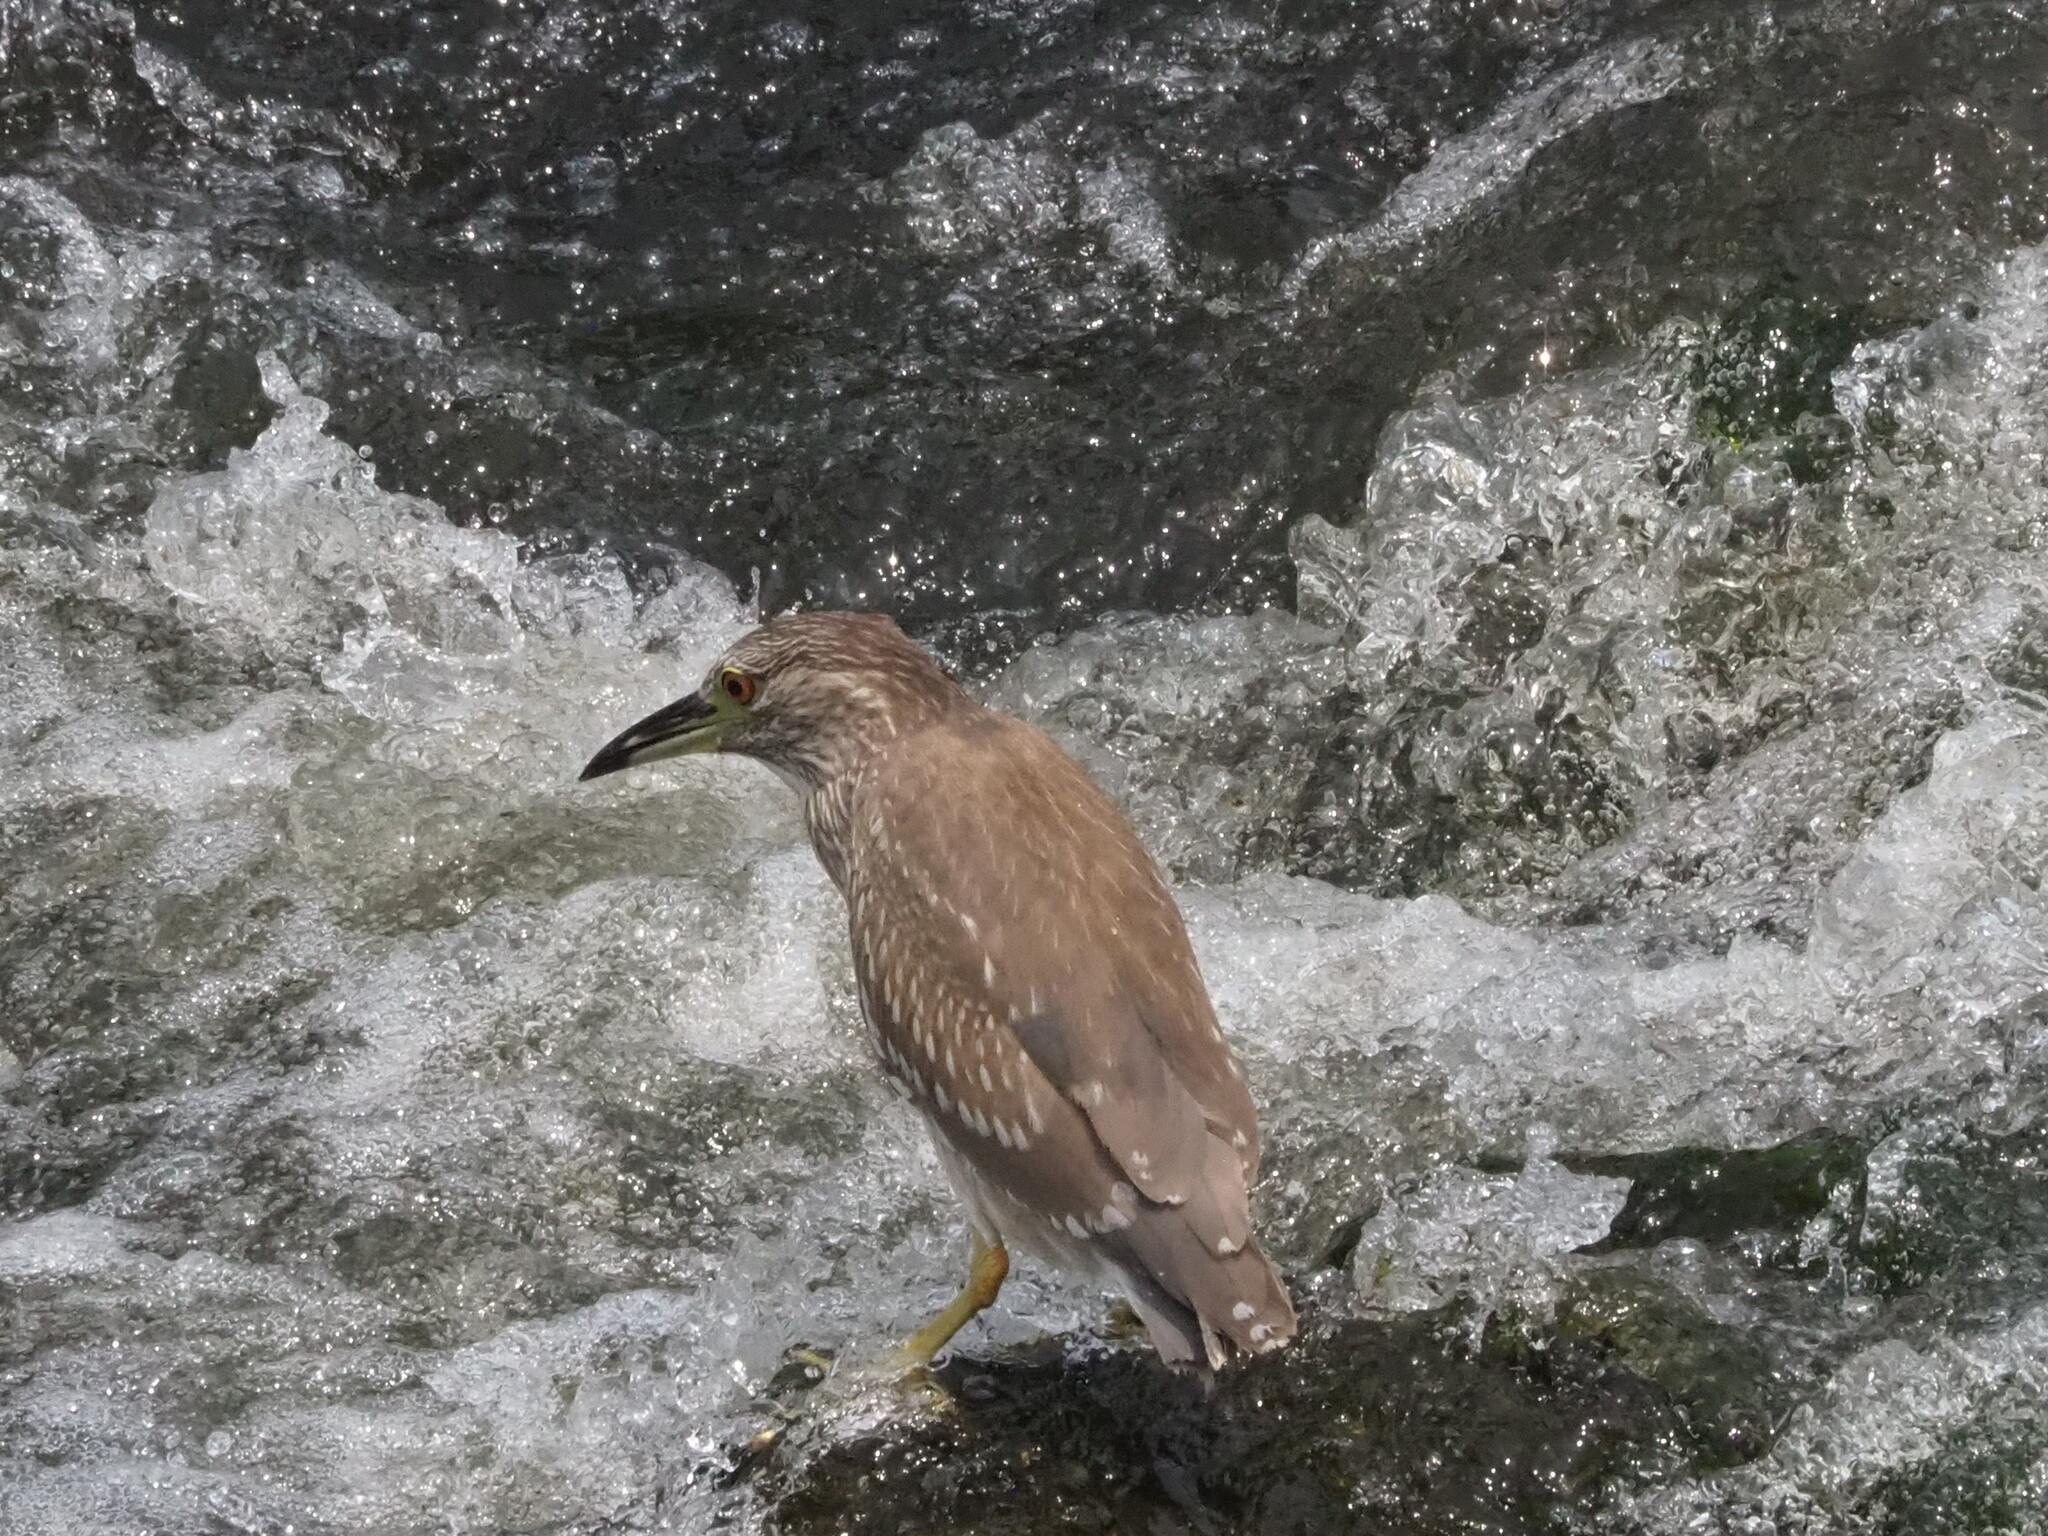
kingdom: Animalia
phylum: Chordata
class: Aves
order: Pelecaniformes
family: Ardeidae
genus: Nycticorax
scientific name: Nycticorax nycticorax
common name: Black-crowned night heron
